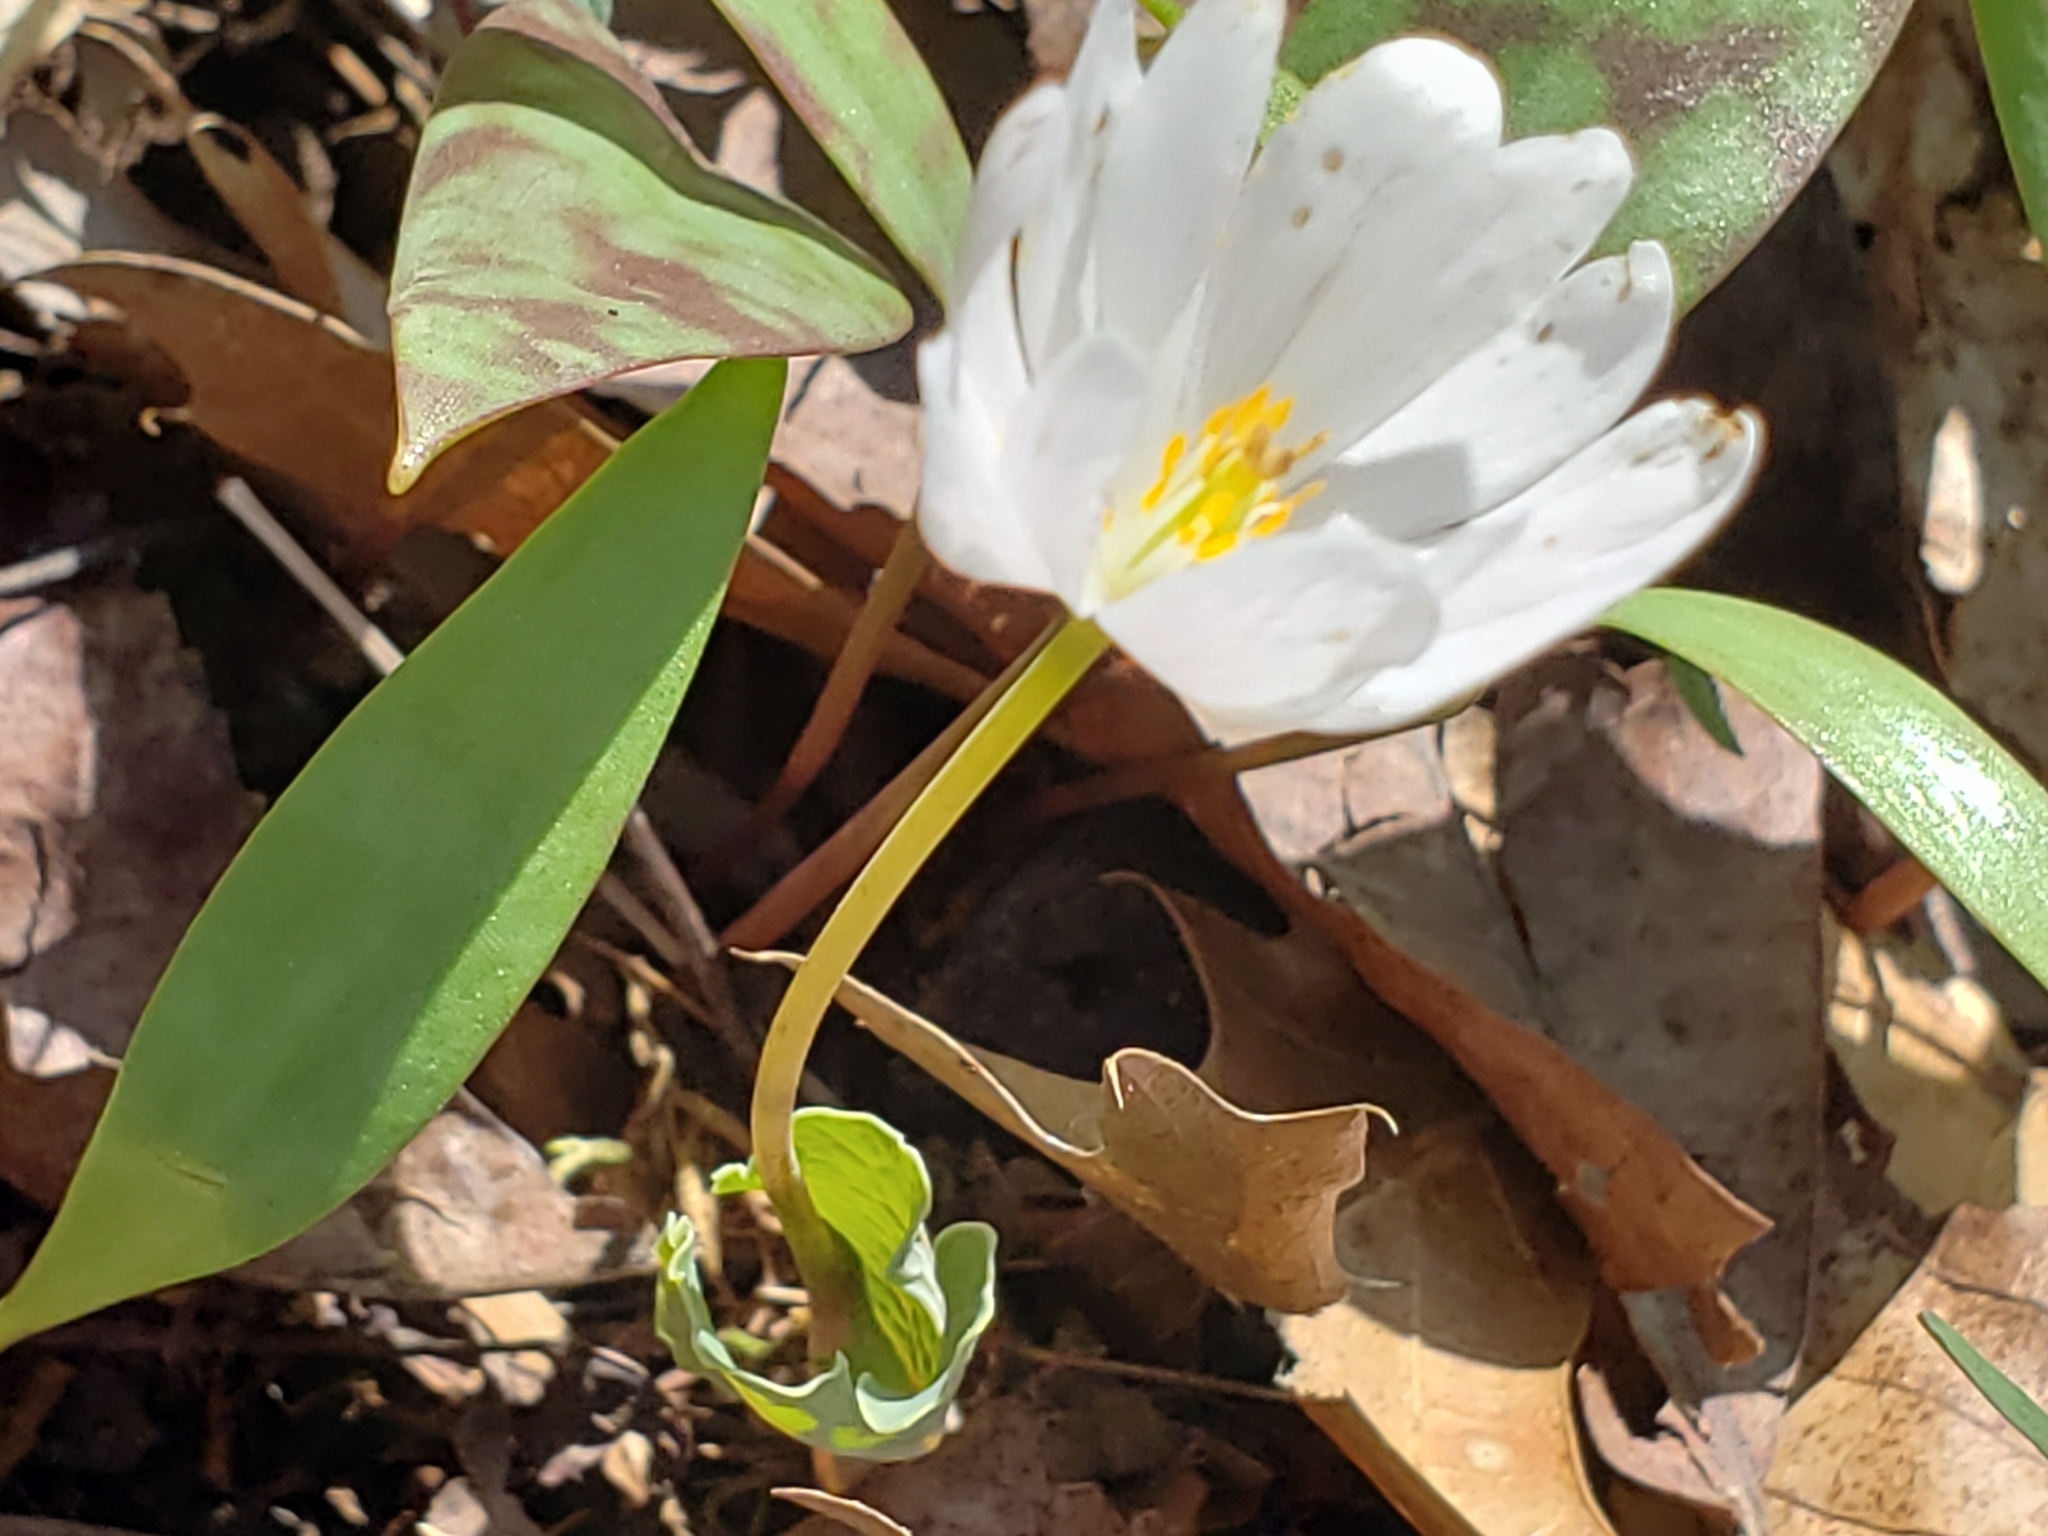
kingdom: Plantae
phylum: Tracheophyta
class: Magnoliopsida
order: Ranunculales
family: Papaveraceae
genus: Sanguinaria
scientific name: Sanguinaria canadensis
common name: Bloodroot
